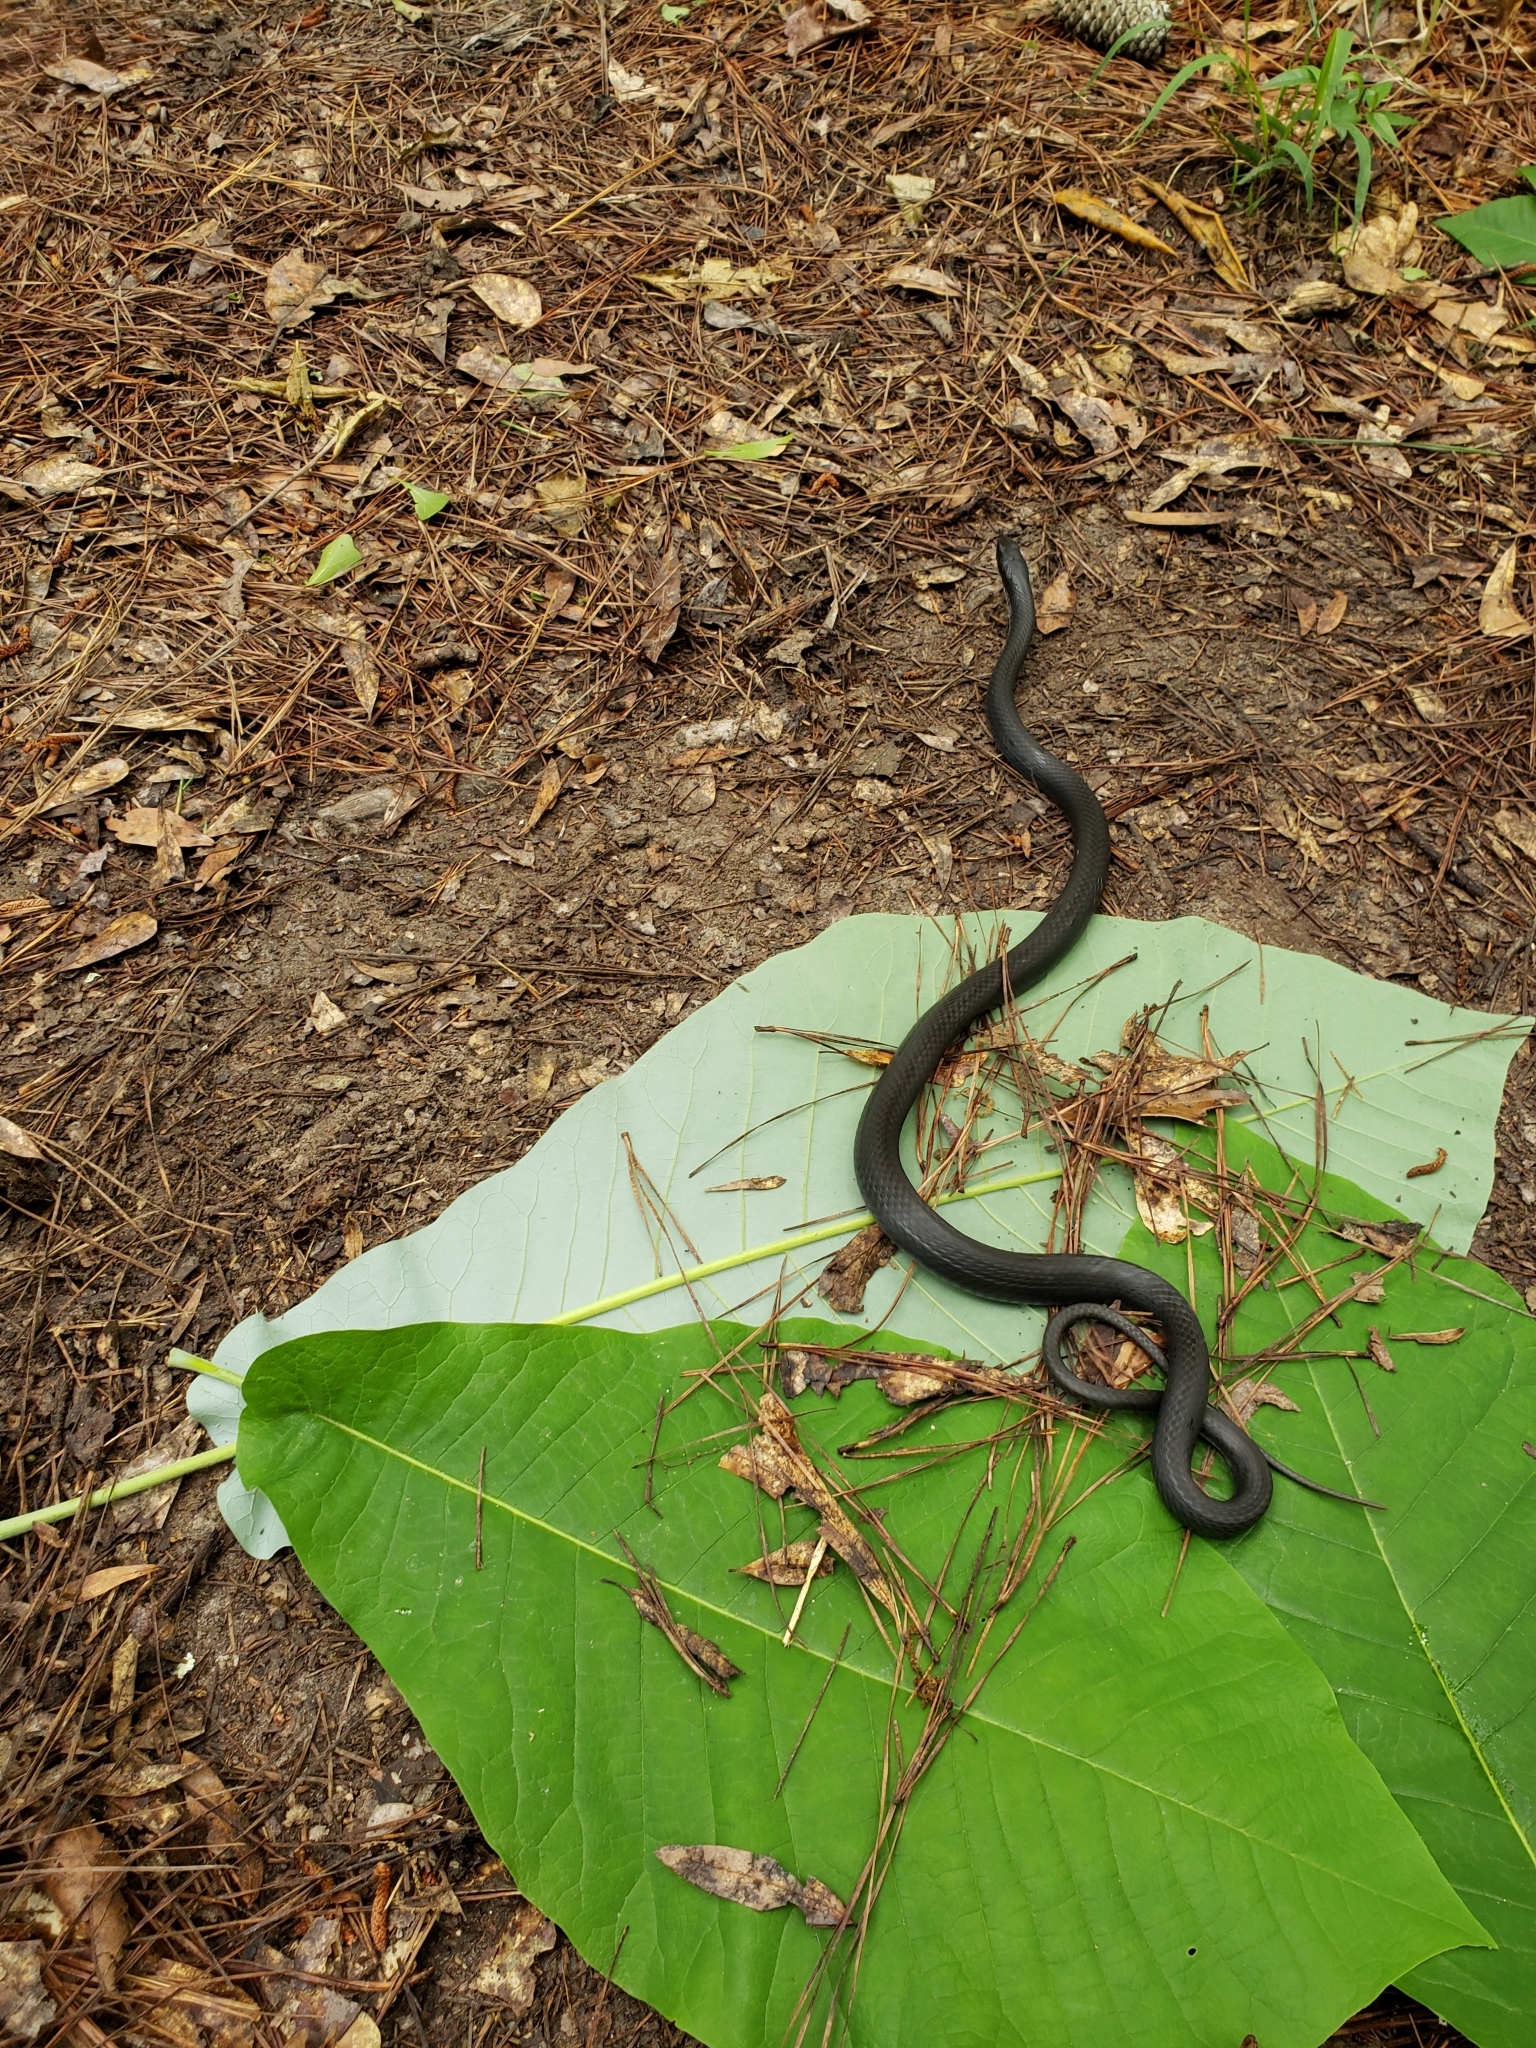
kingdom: Animalia
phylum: Chordata
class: Squamata
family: Colubridae
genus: Coluber
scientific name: Coluber constrictor
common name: Eastern racer
